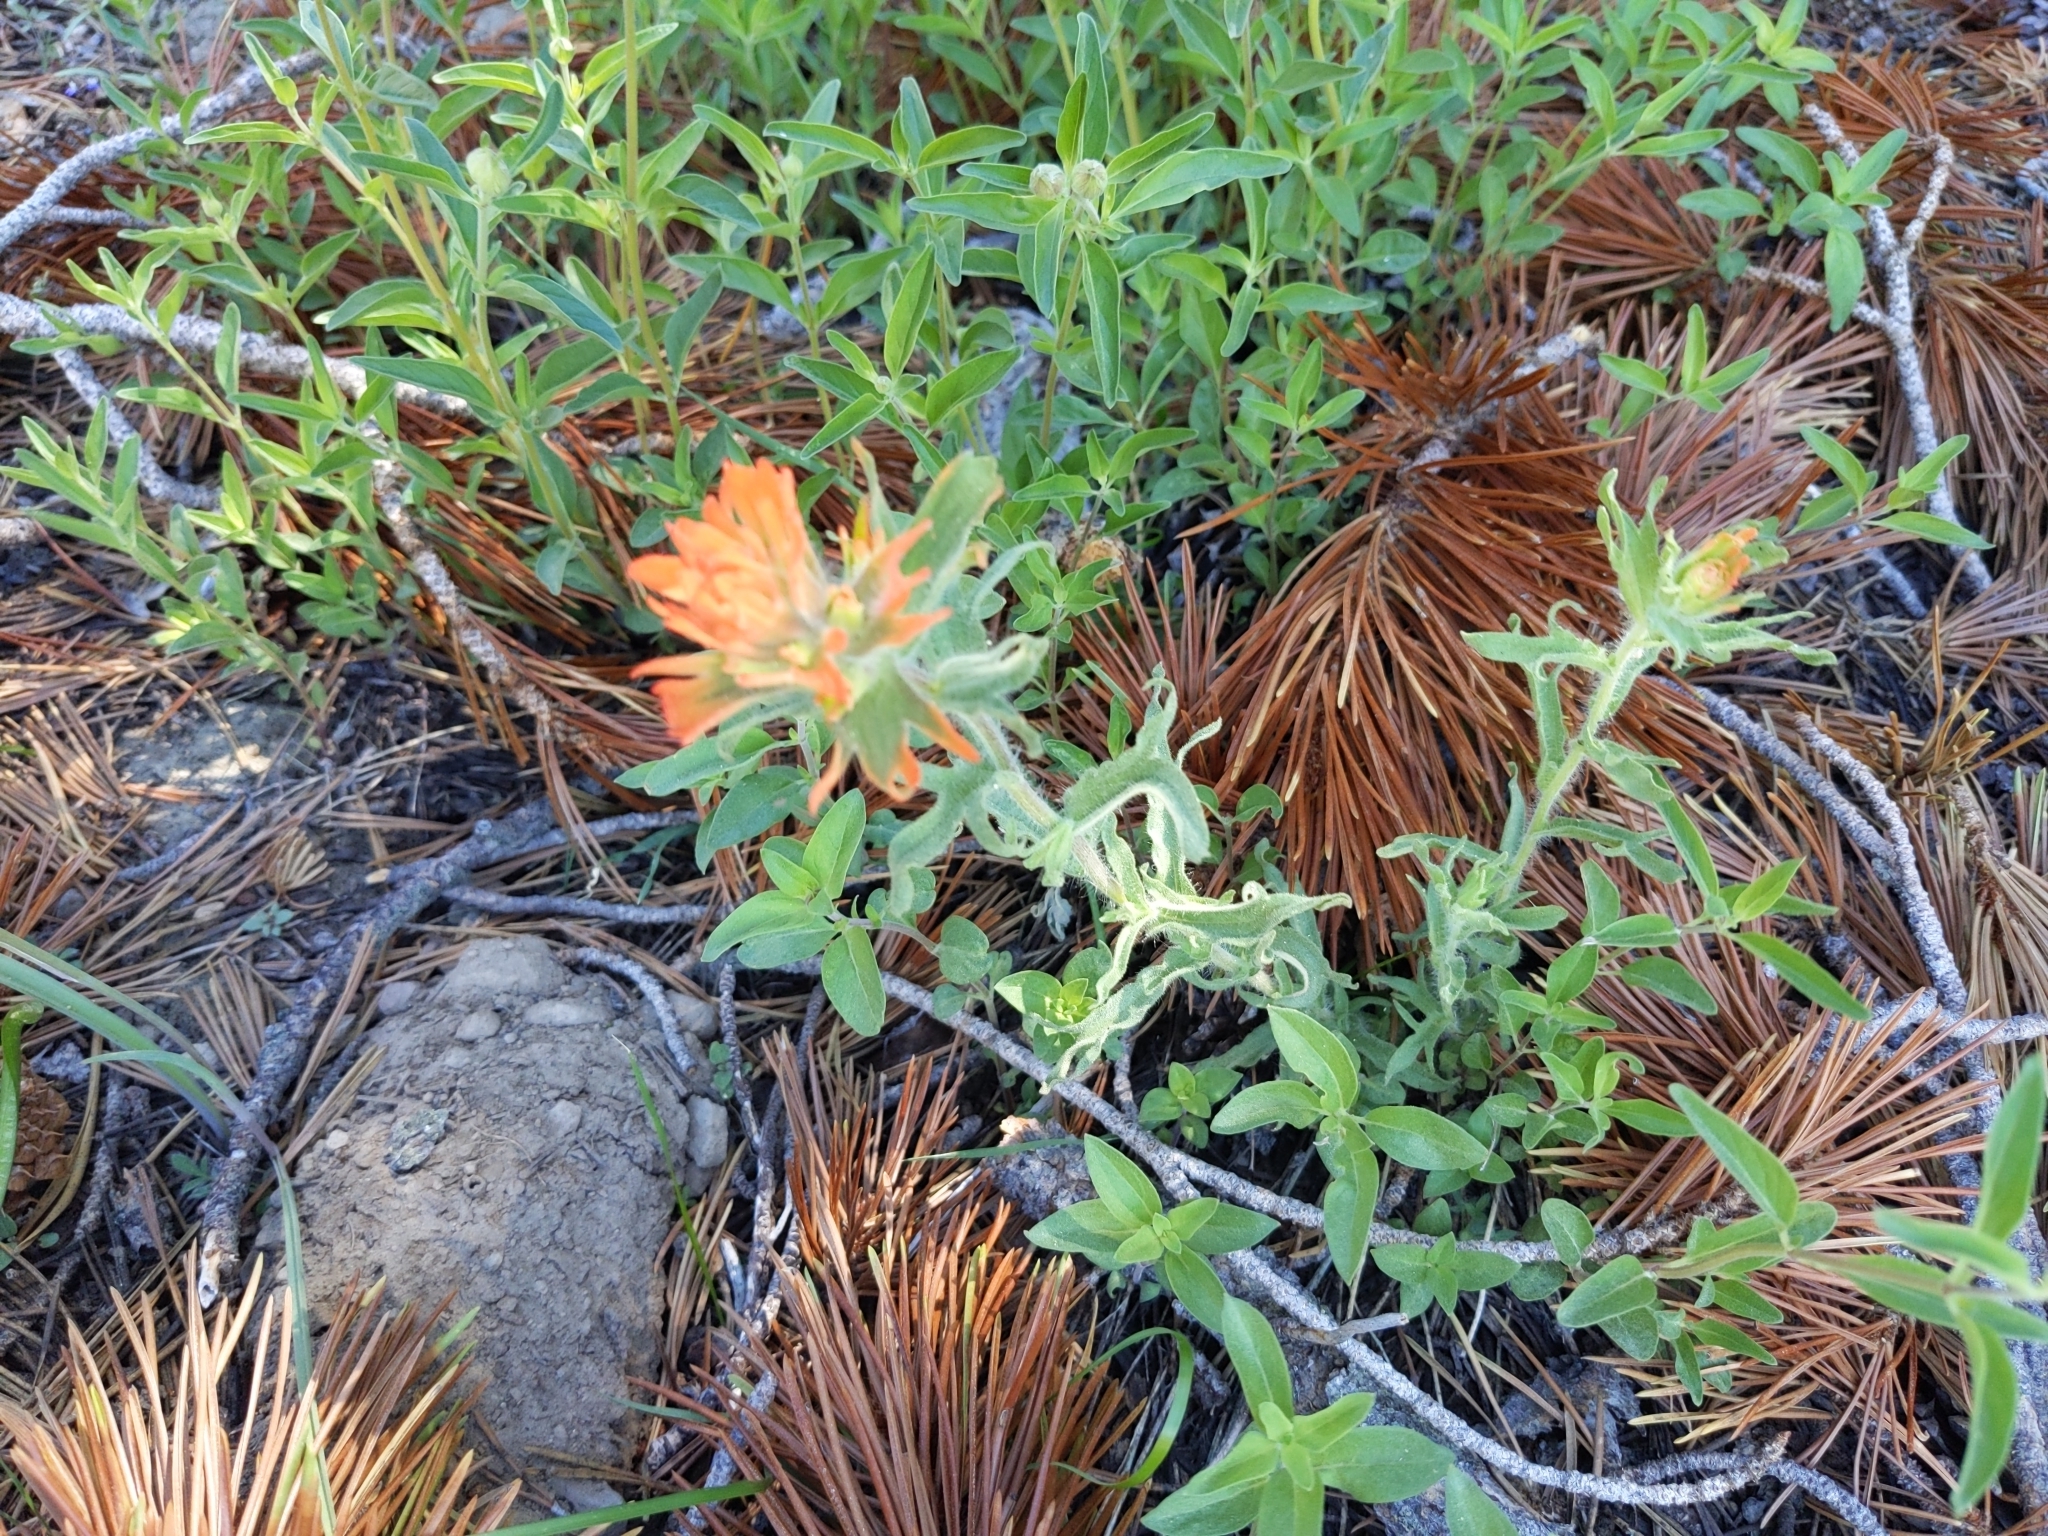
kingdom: Plantae
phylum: Tracheophyta
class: Magnoliopsida
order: Lamiales
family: Orobanchaceae
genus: Castilleja
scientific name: Castilleja applegatei
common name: Wavy-leaf paintbrush
